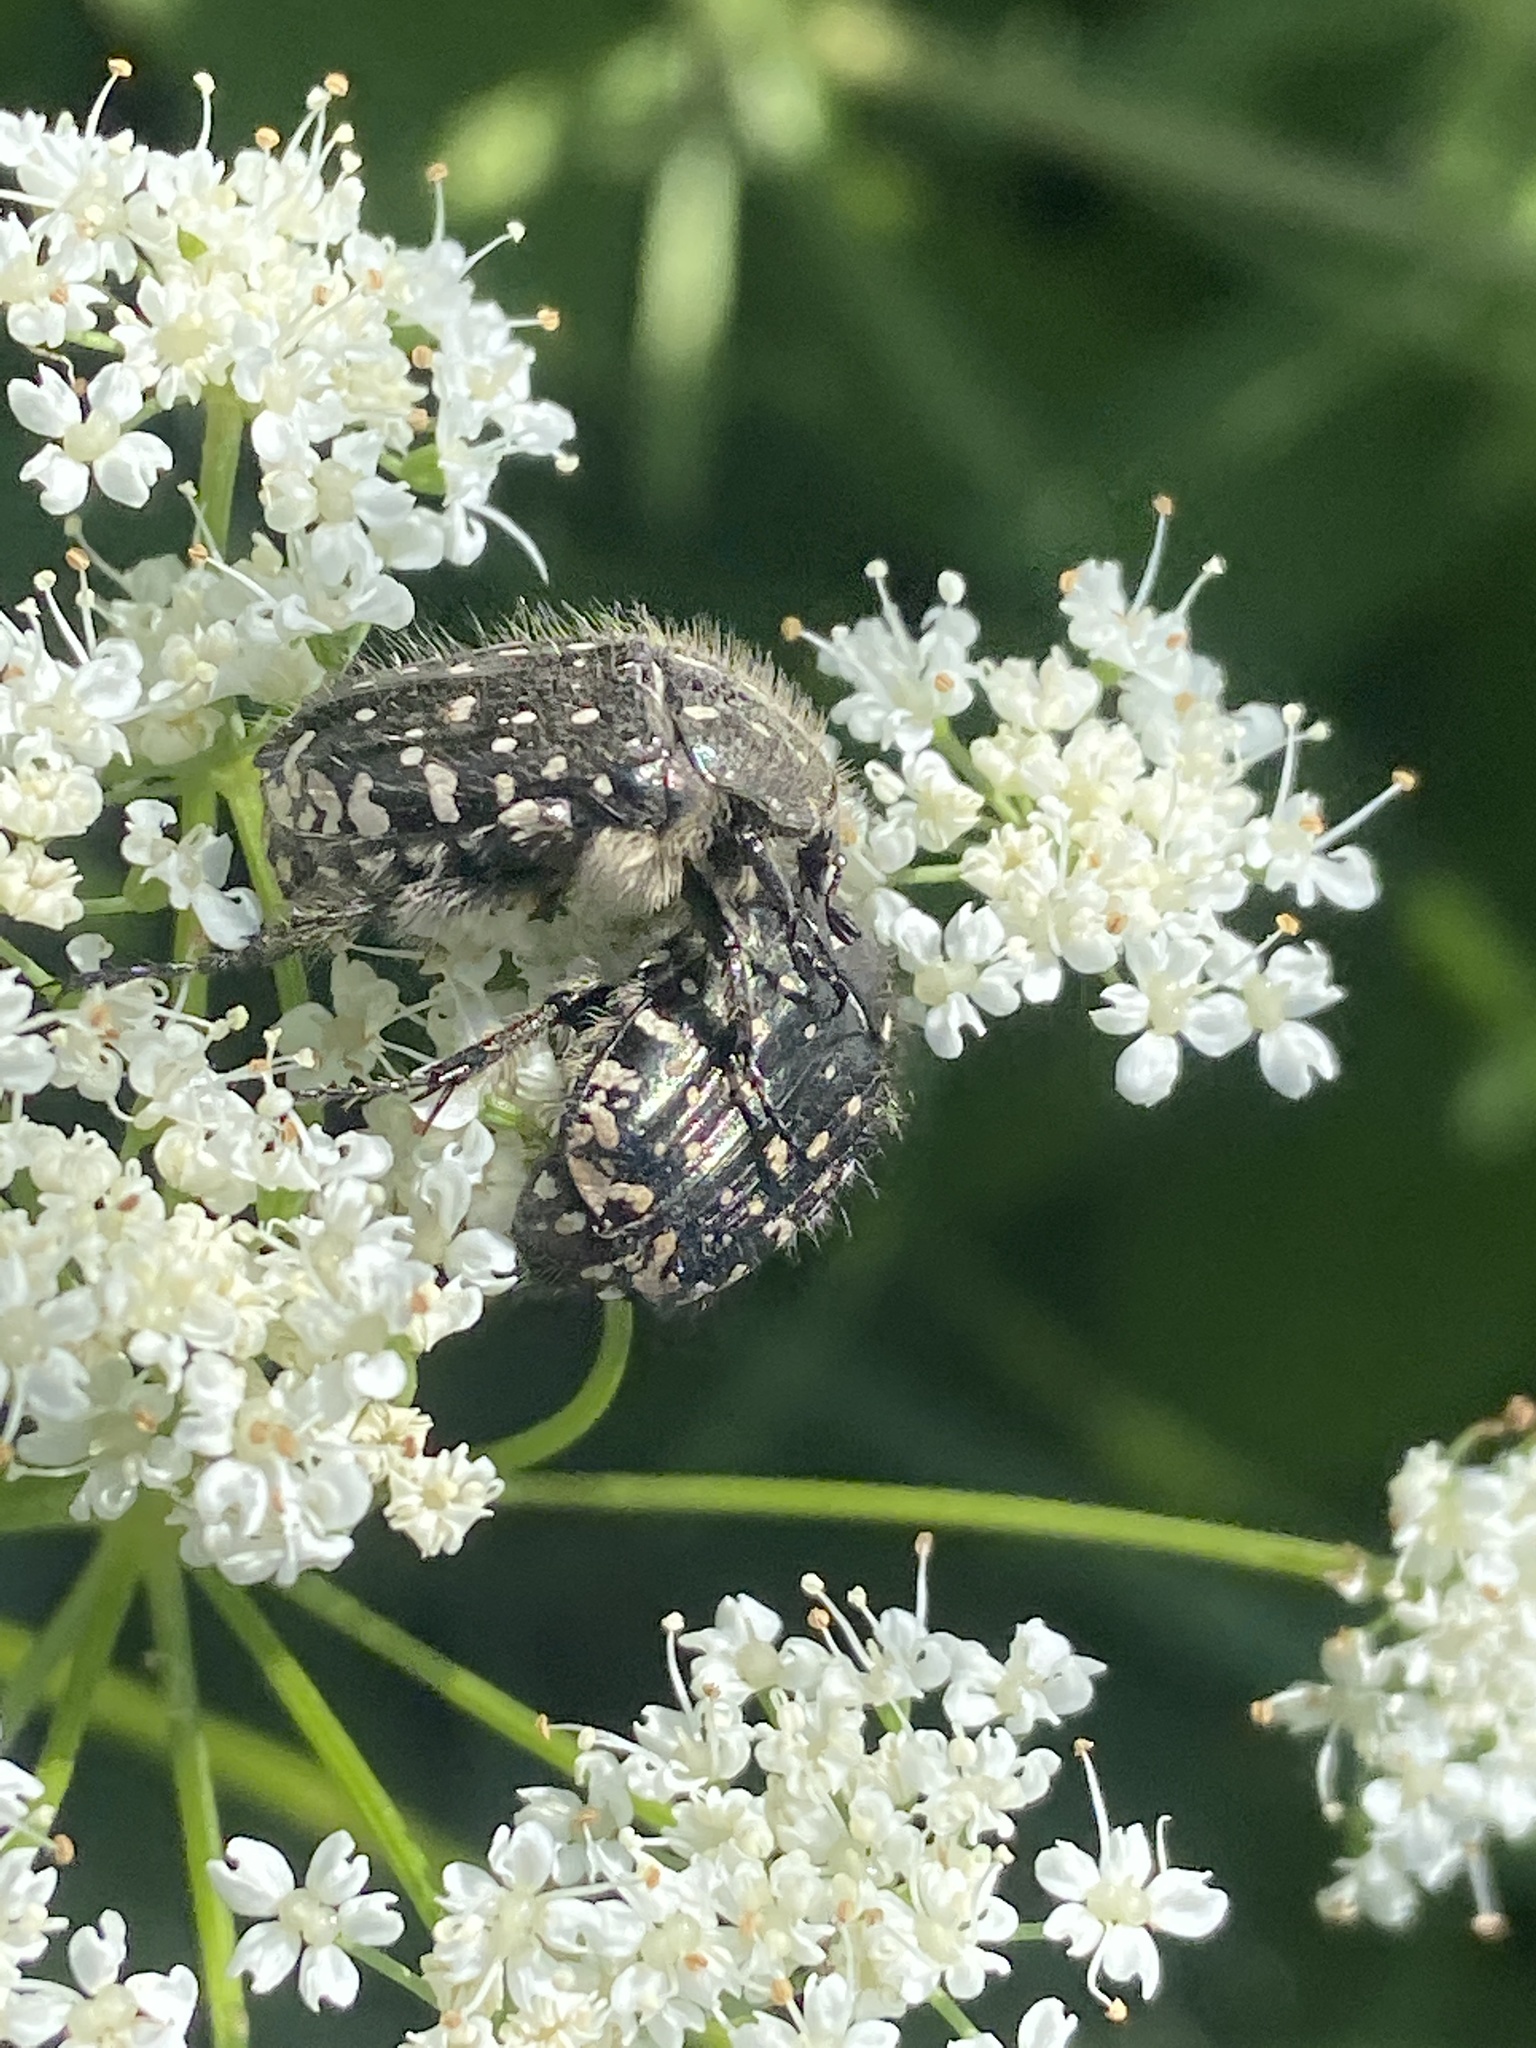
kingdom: Animalia
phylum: Arthropoda
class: Insecta
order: Coleoptera
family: Scarabaeidae
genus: Oxythyrea
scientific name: Oxythyrea funesta
